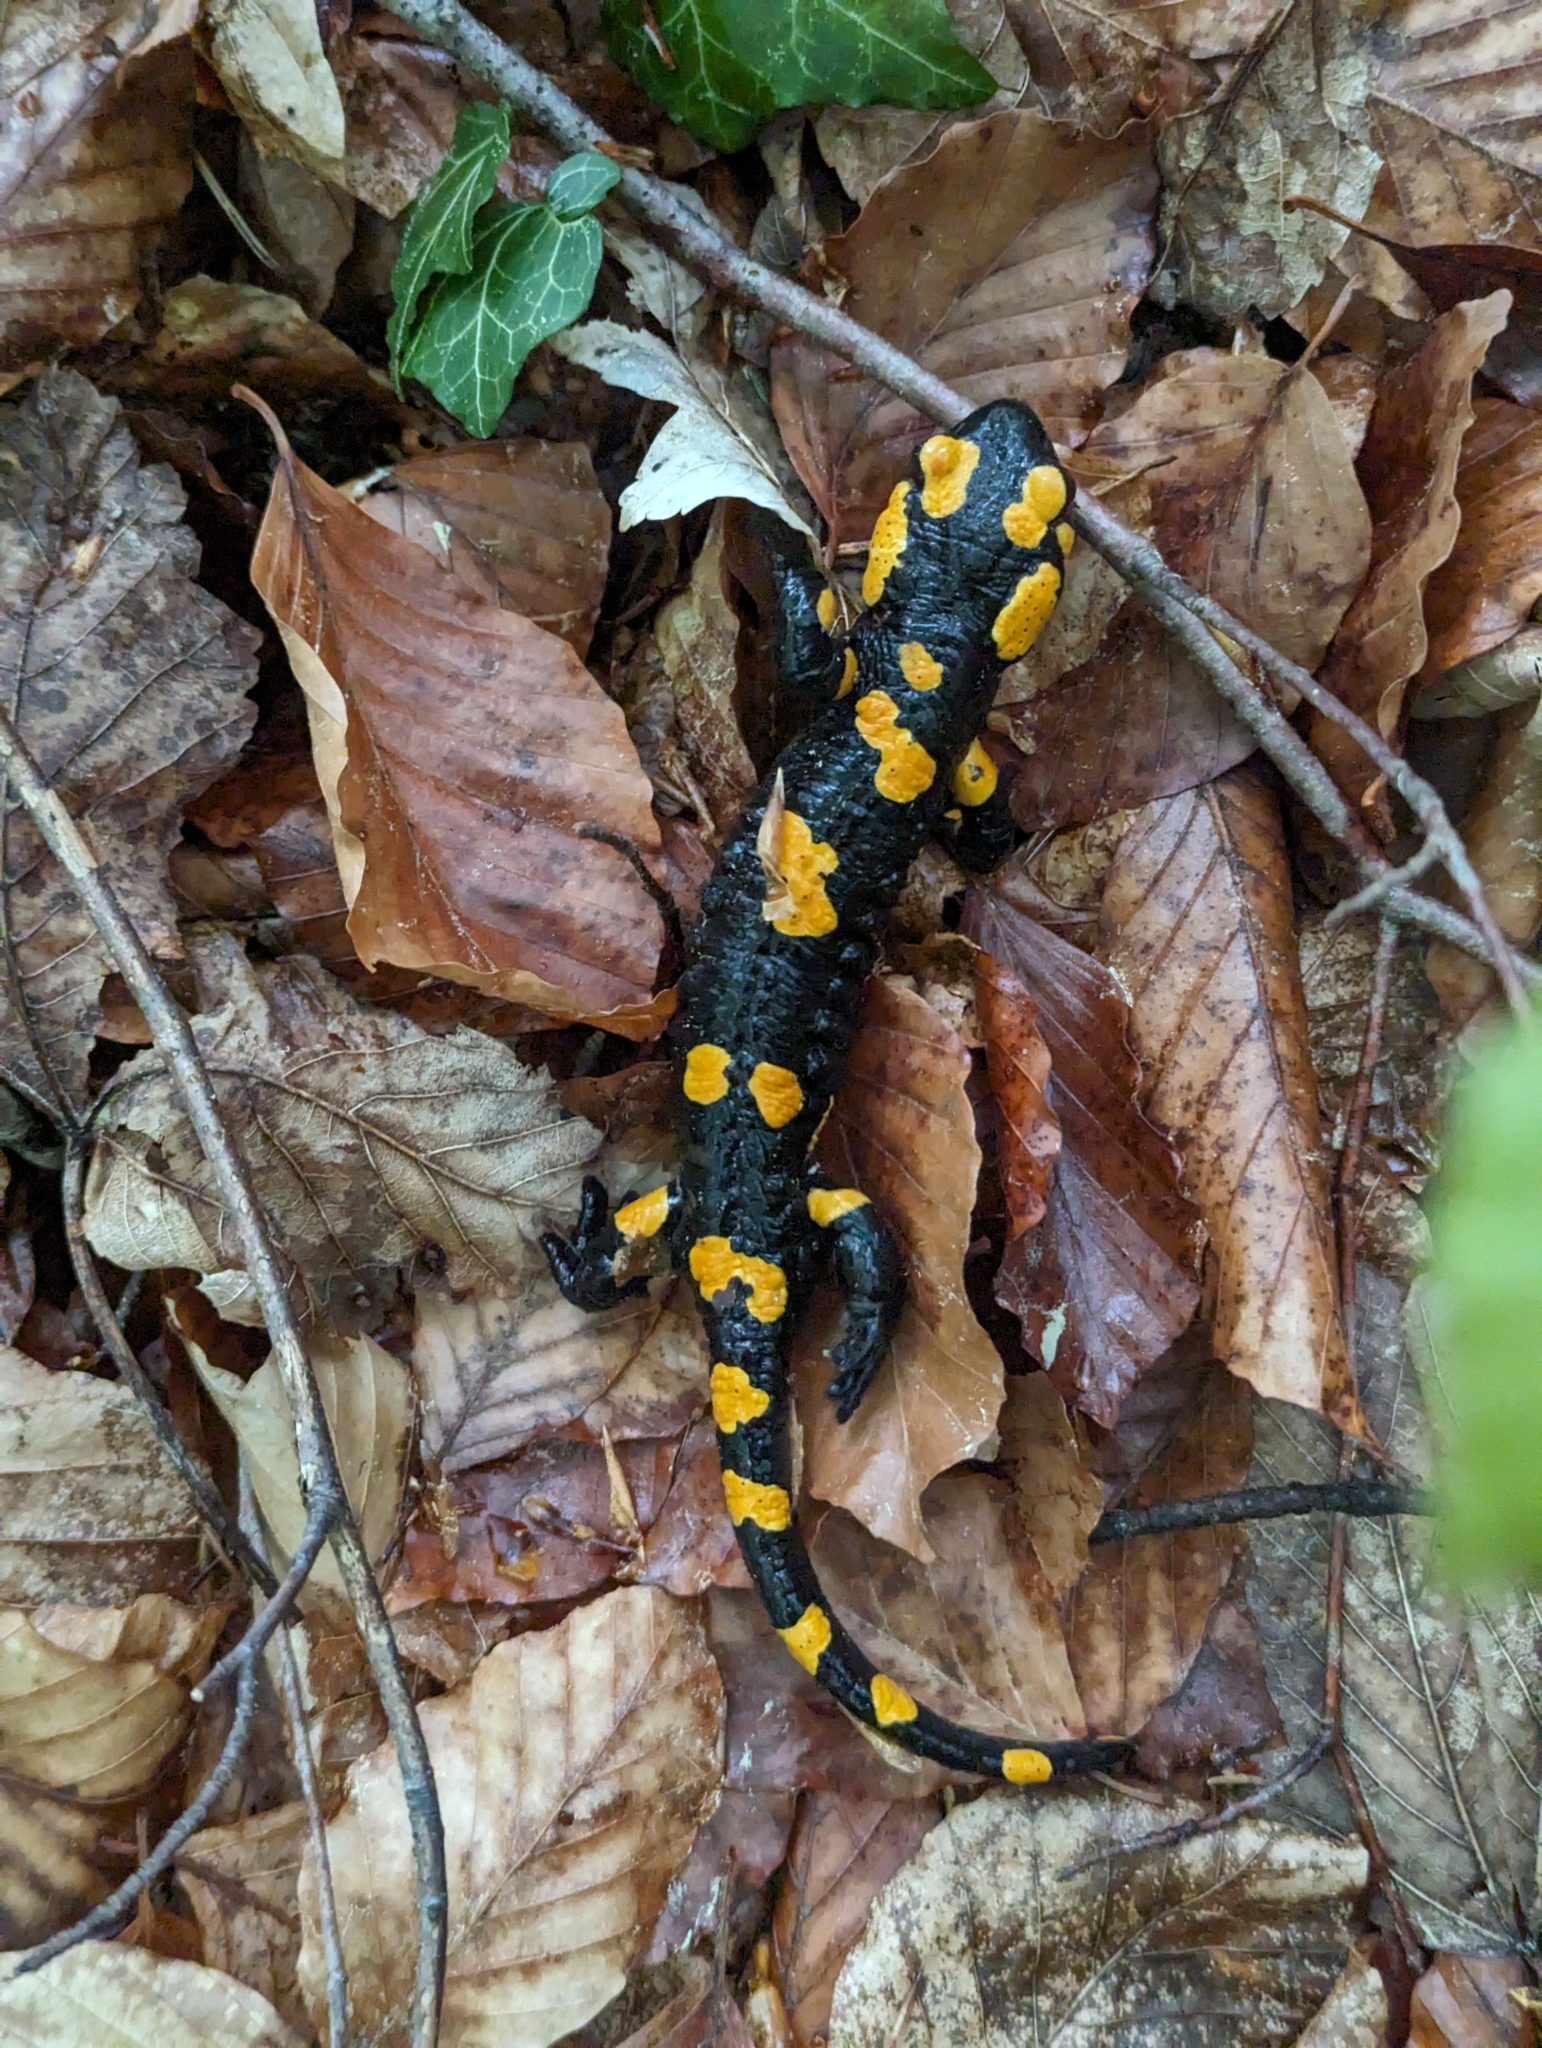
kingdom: Animalia
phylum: Chordata
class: Amphibia
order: Caudata
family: Salamandridae
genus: Salamandra
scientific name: Salamandra salamandra
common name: Fire salamander
